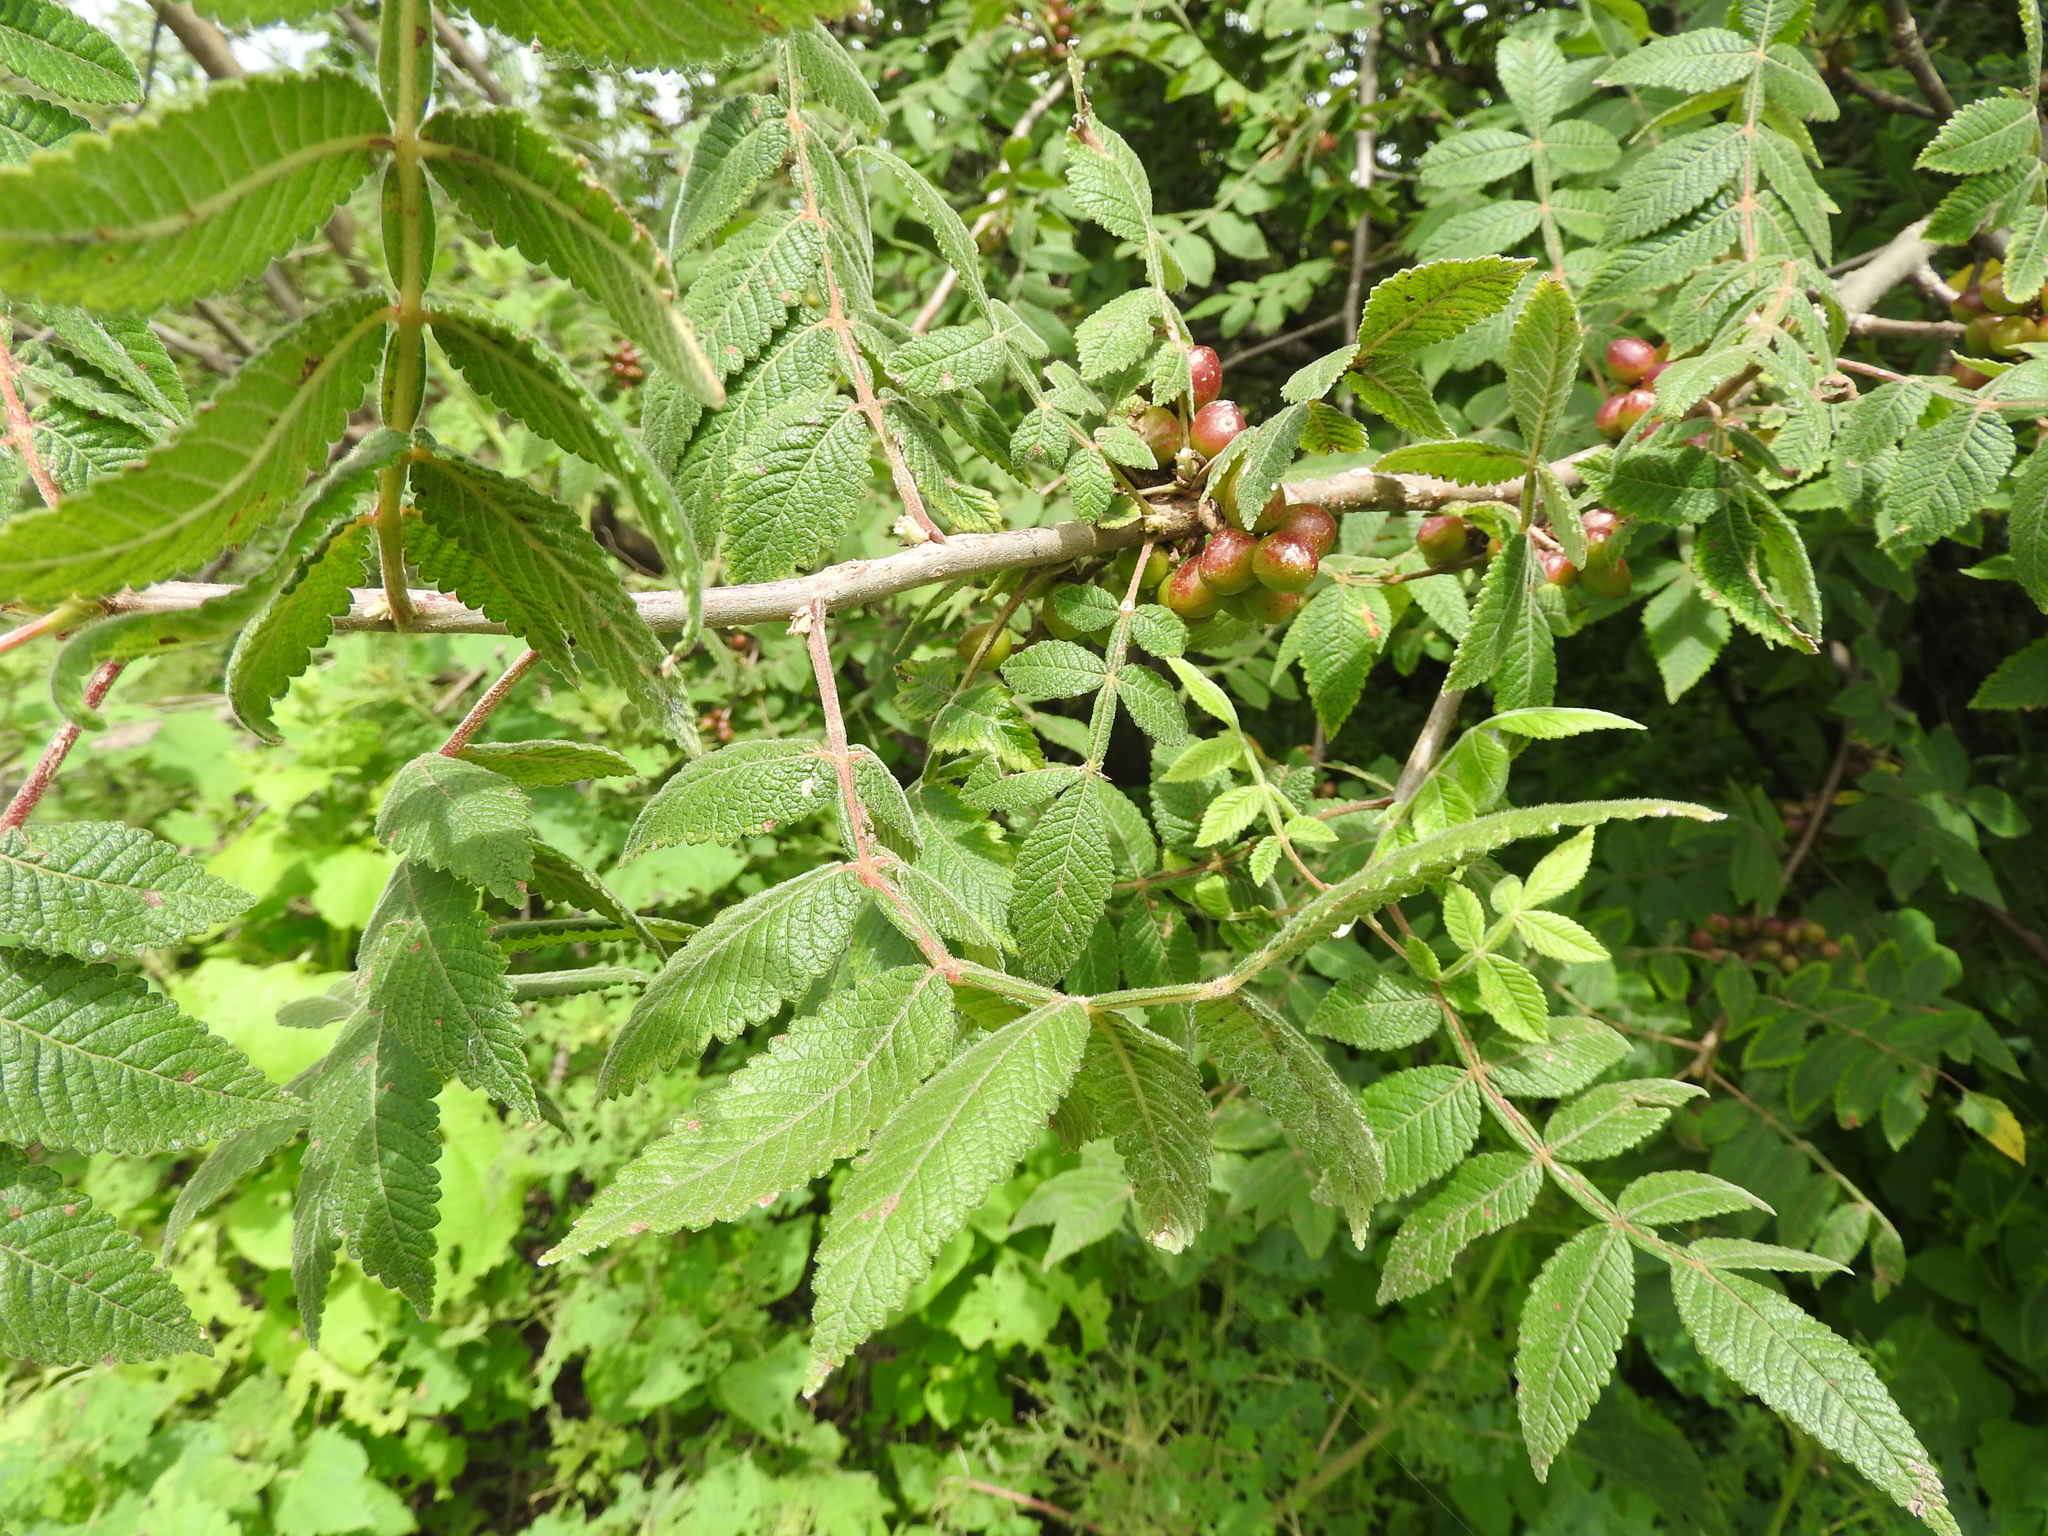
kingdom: Plantae
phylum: Tracheophyta
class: Magnoliopsida
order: Sapindales
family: Burseraceae
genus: Bursera
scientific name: Bursera palmeri
